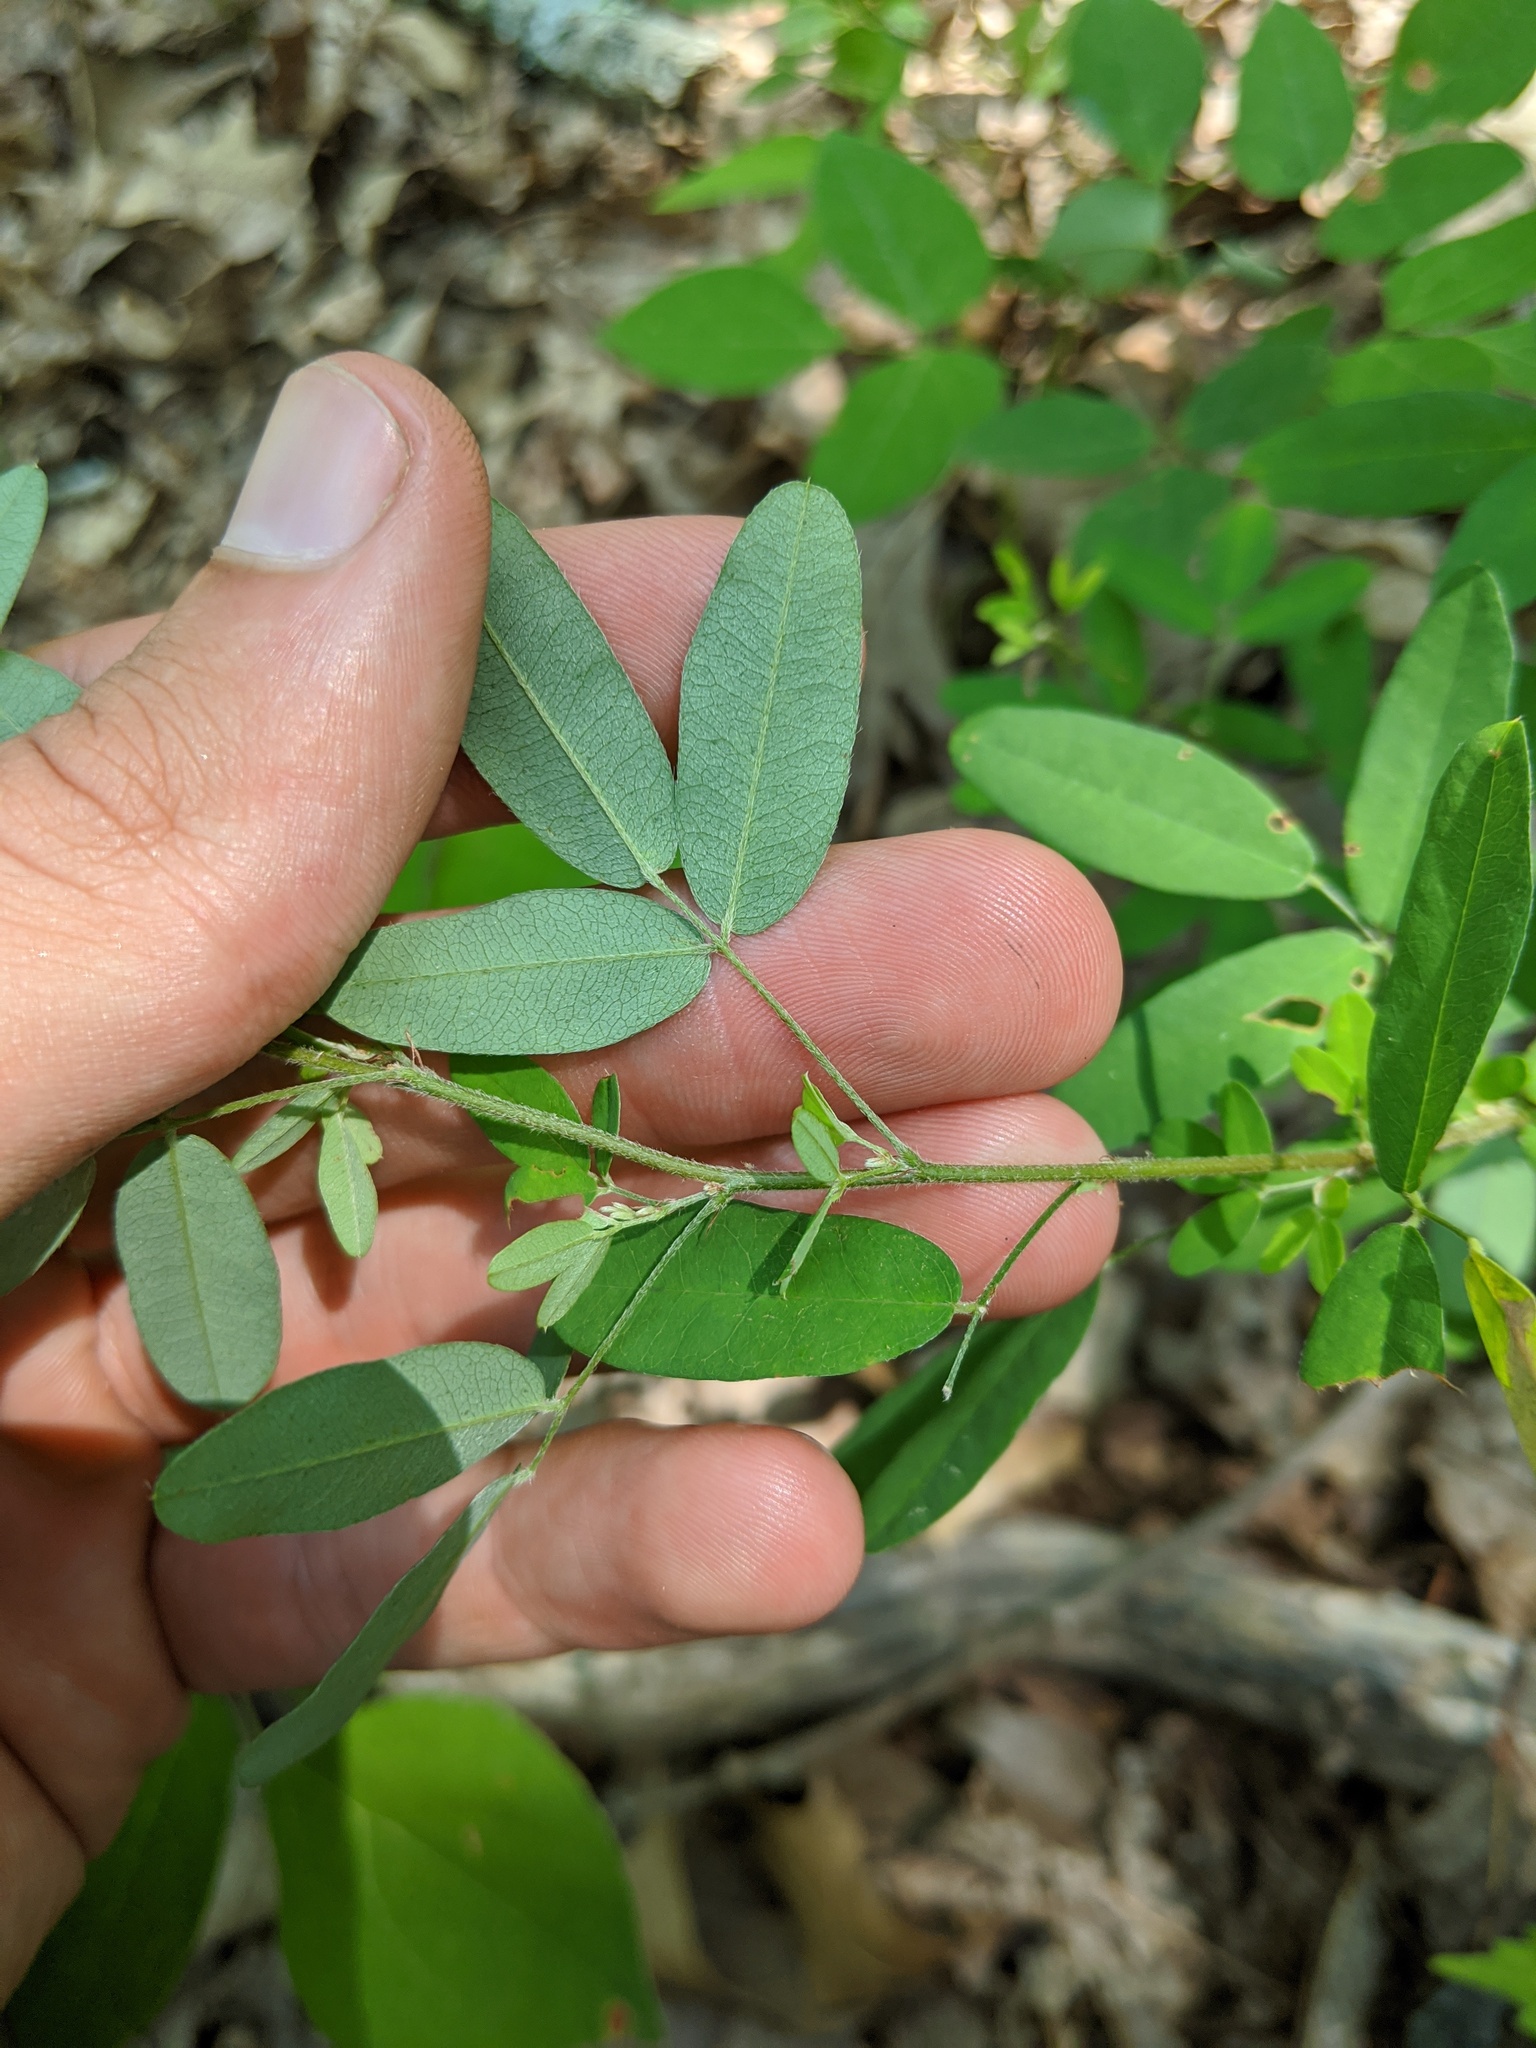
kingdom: Plantae
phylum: Tracheophyta
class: Magnoliopsida
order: Fabales
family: Fabaceae
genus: Lespedeza
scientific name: Lespedeza violacea
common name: Wand bush-clover
